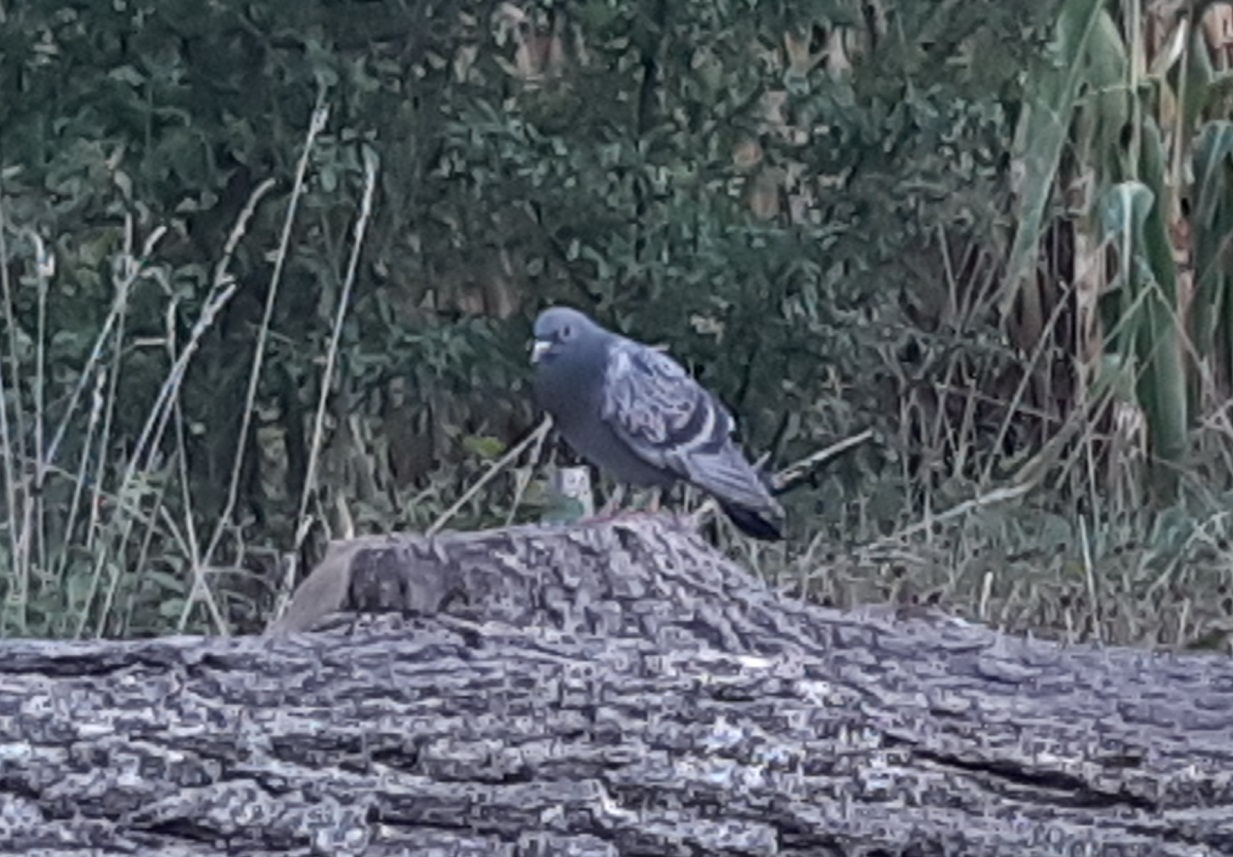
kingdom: Animalia
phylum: Chordata
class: Aves
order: Columbiformes
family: Columbidae
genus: Columba
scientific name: Columba livia
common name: Rock pigeon
